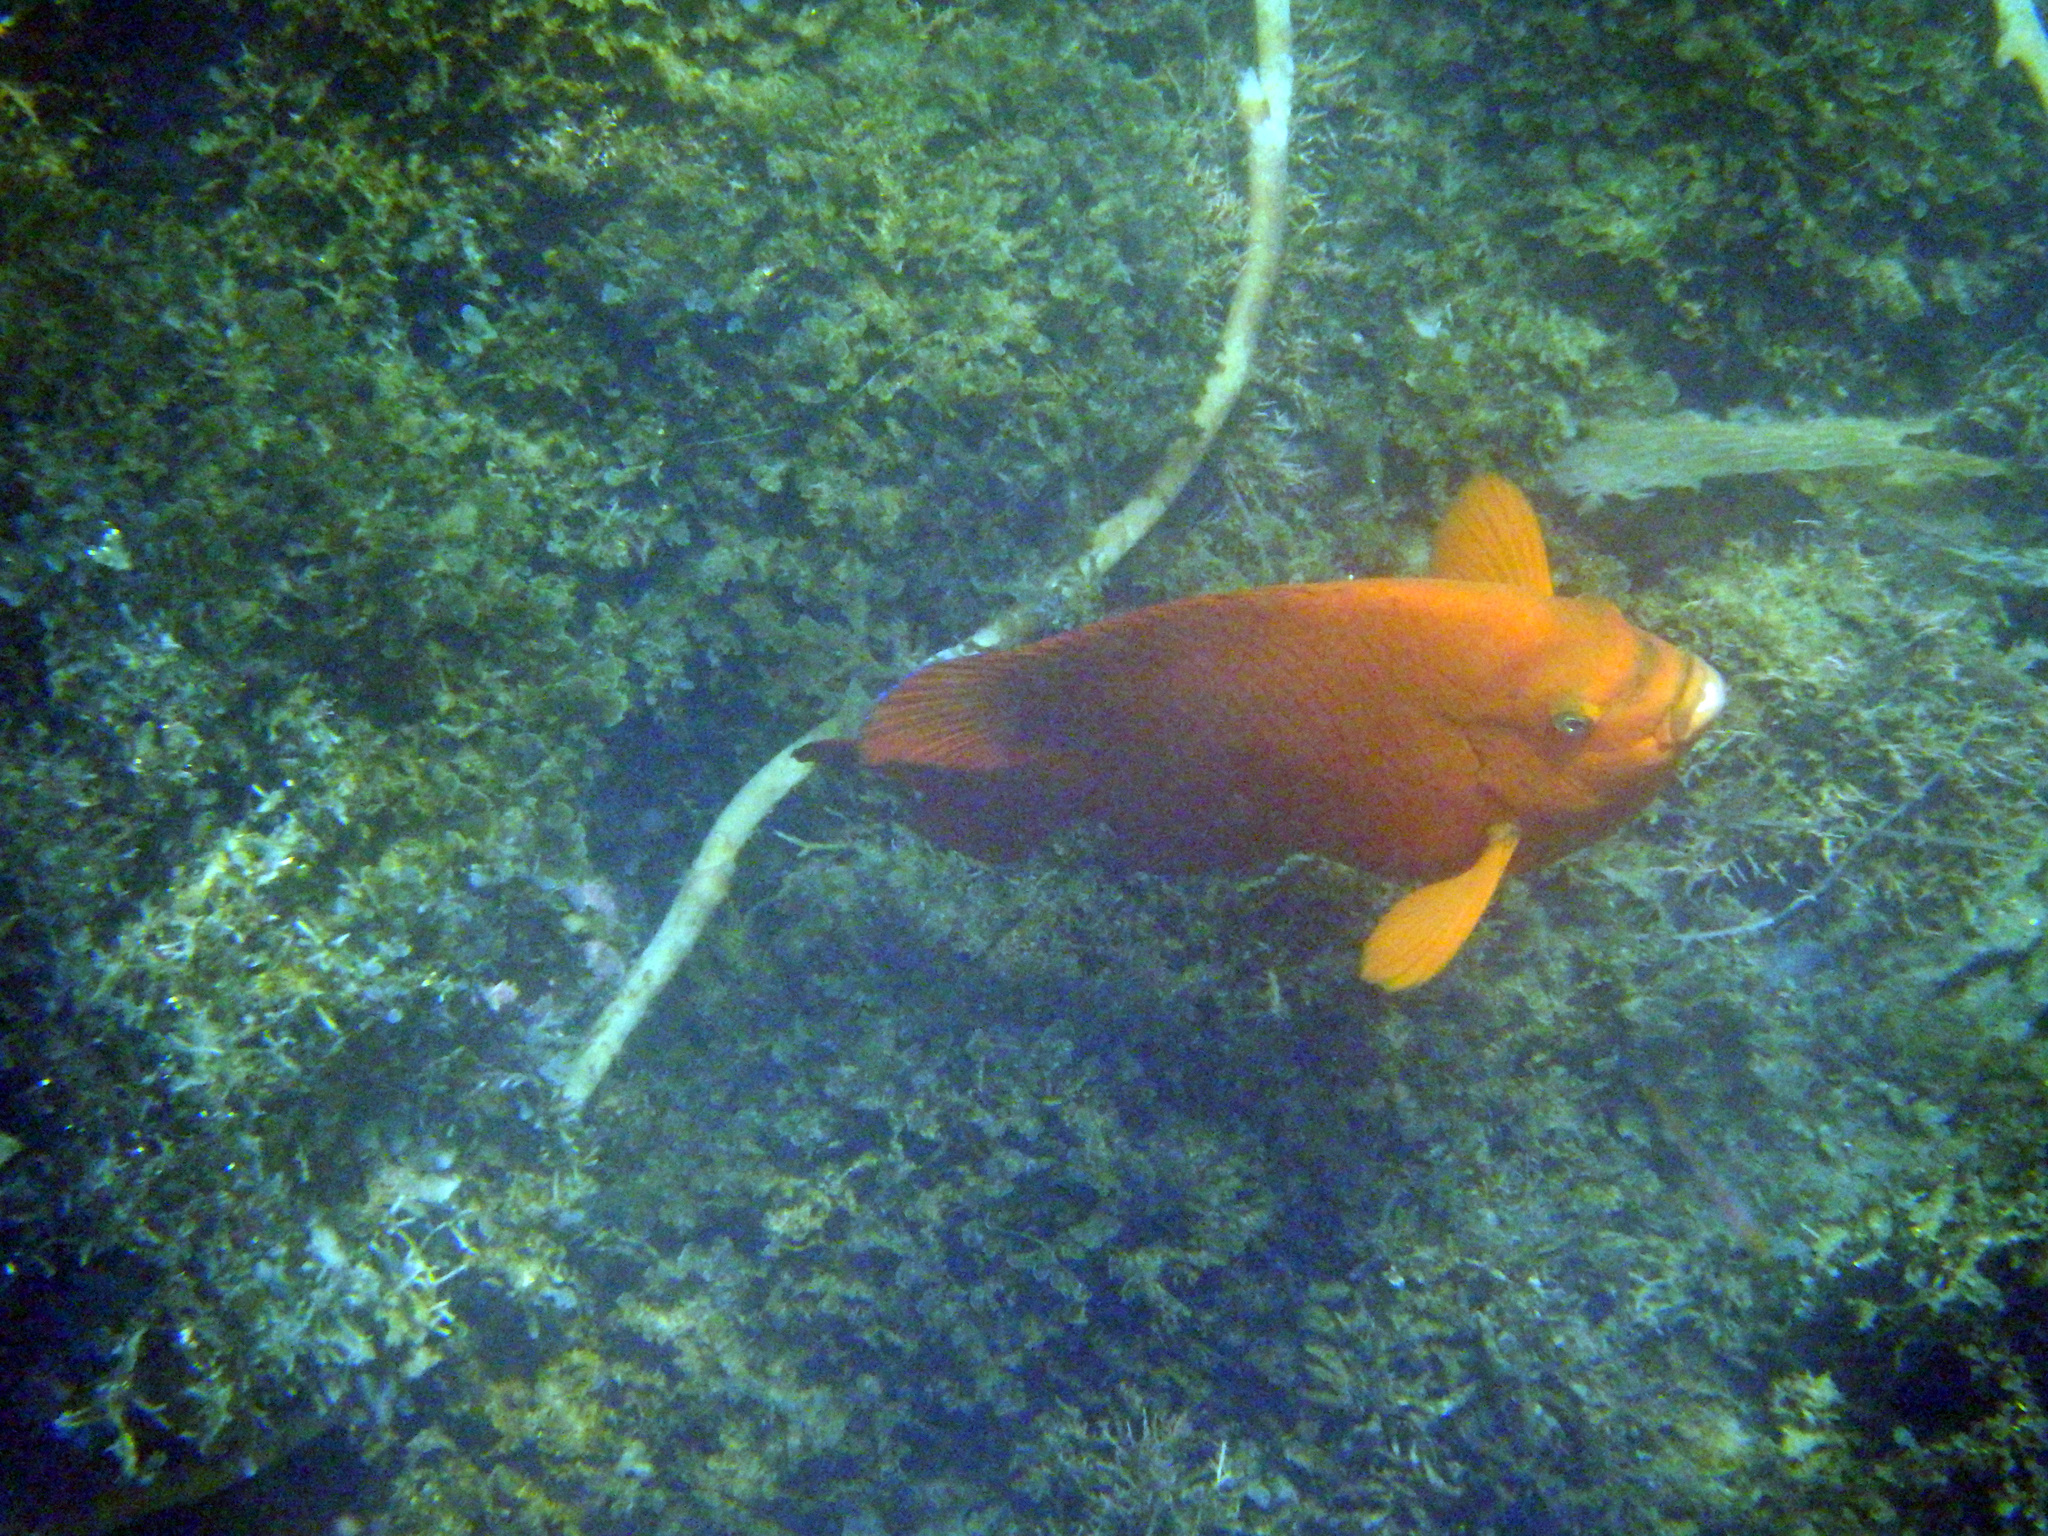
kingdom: Animalia
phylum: Chordata
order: Perciformes
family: Pomacentridae
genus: Hypsypops
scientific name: Hypsypops rubicundus
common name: Garibaldi
